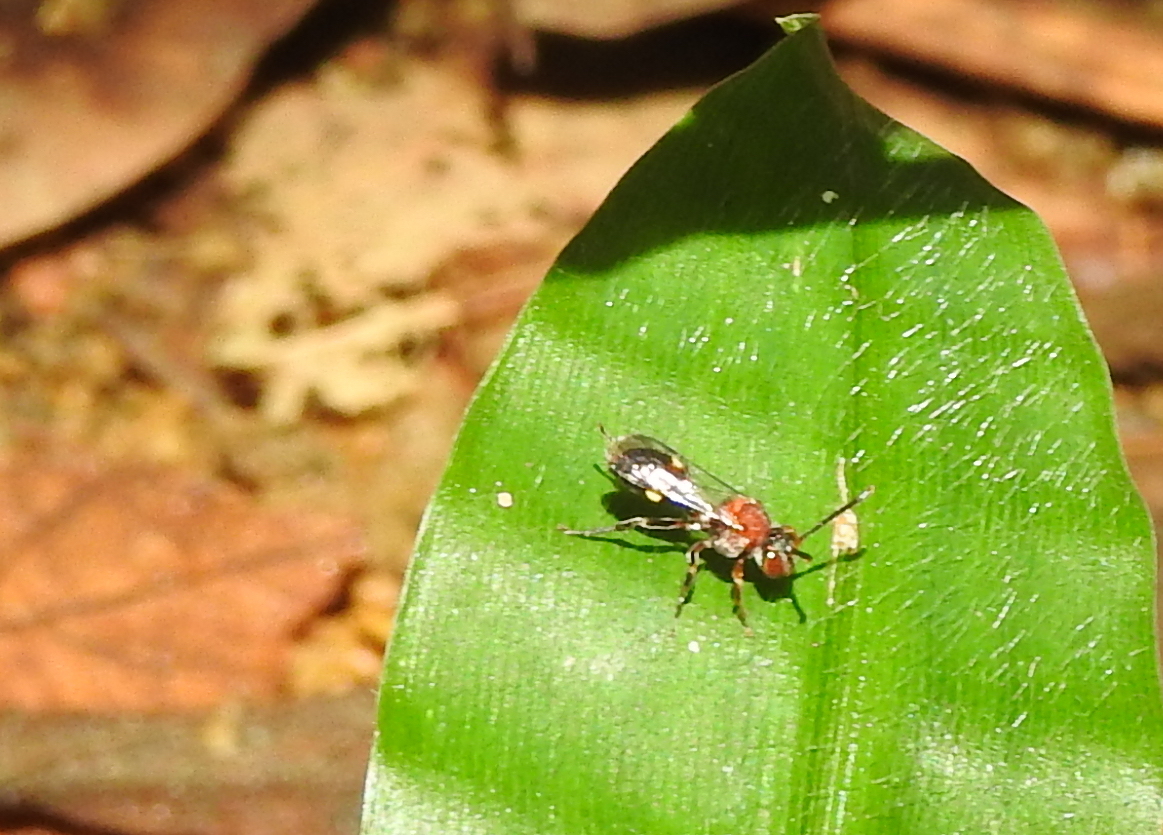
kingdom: Animalia
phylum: Arthropoda
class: Insecta
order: Hymenoptera
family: Apidae
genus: Nomada
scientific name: Nomada malayana
